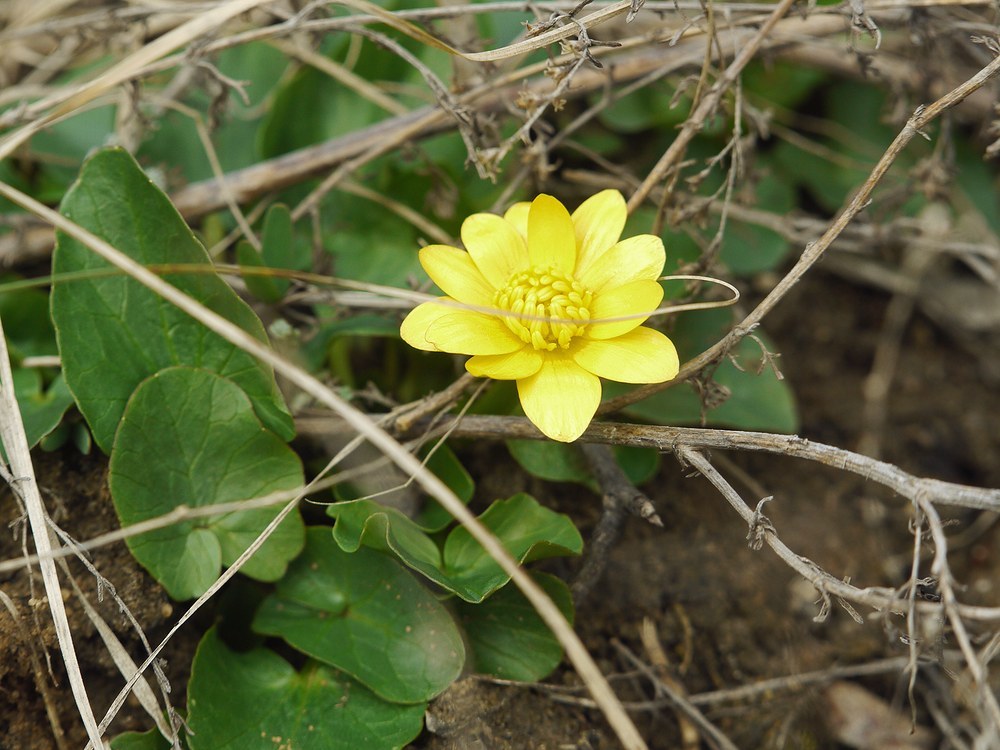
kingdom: Plantae
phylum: Tracheophyta
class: Magnoliopsida
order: Ranunculales
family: Ranunculaceae
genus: Ficaria
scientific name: Ficaria verna
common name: Lesser celandine
